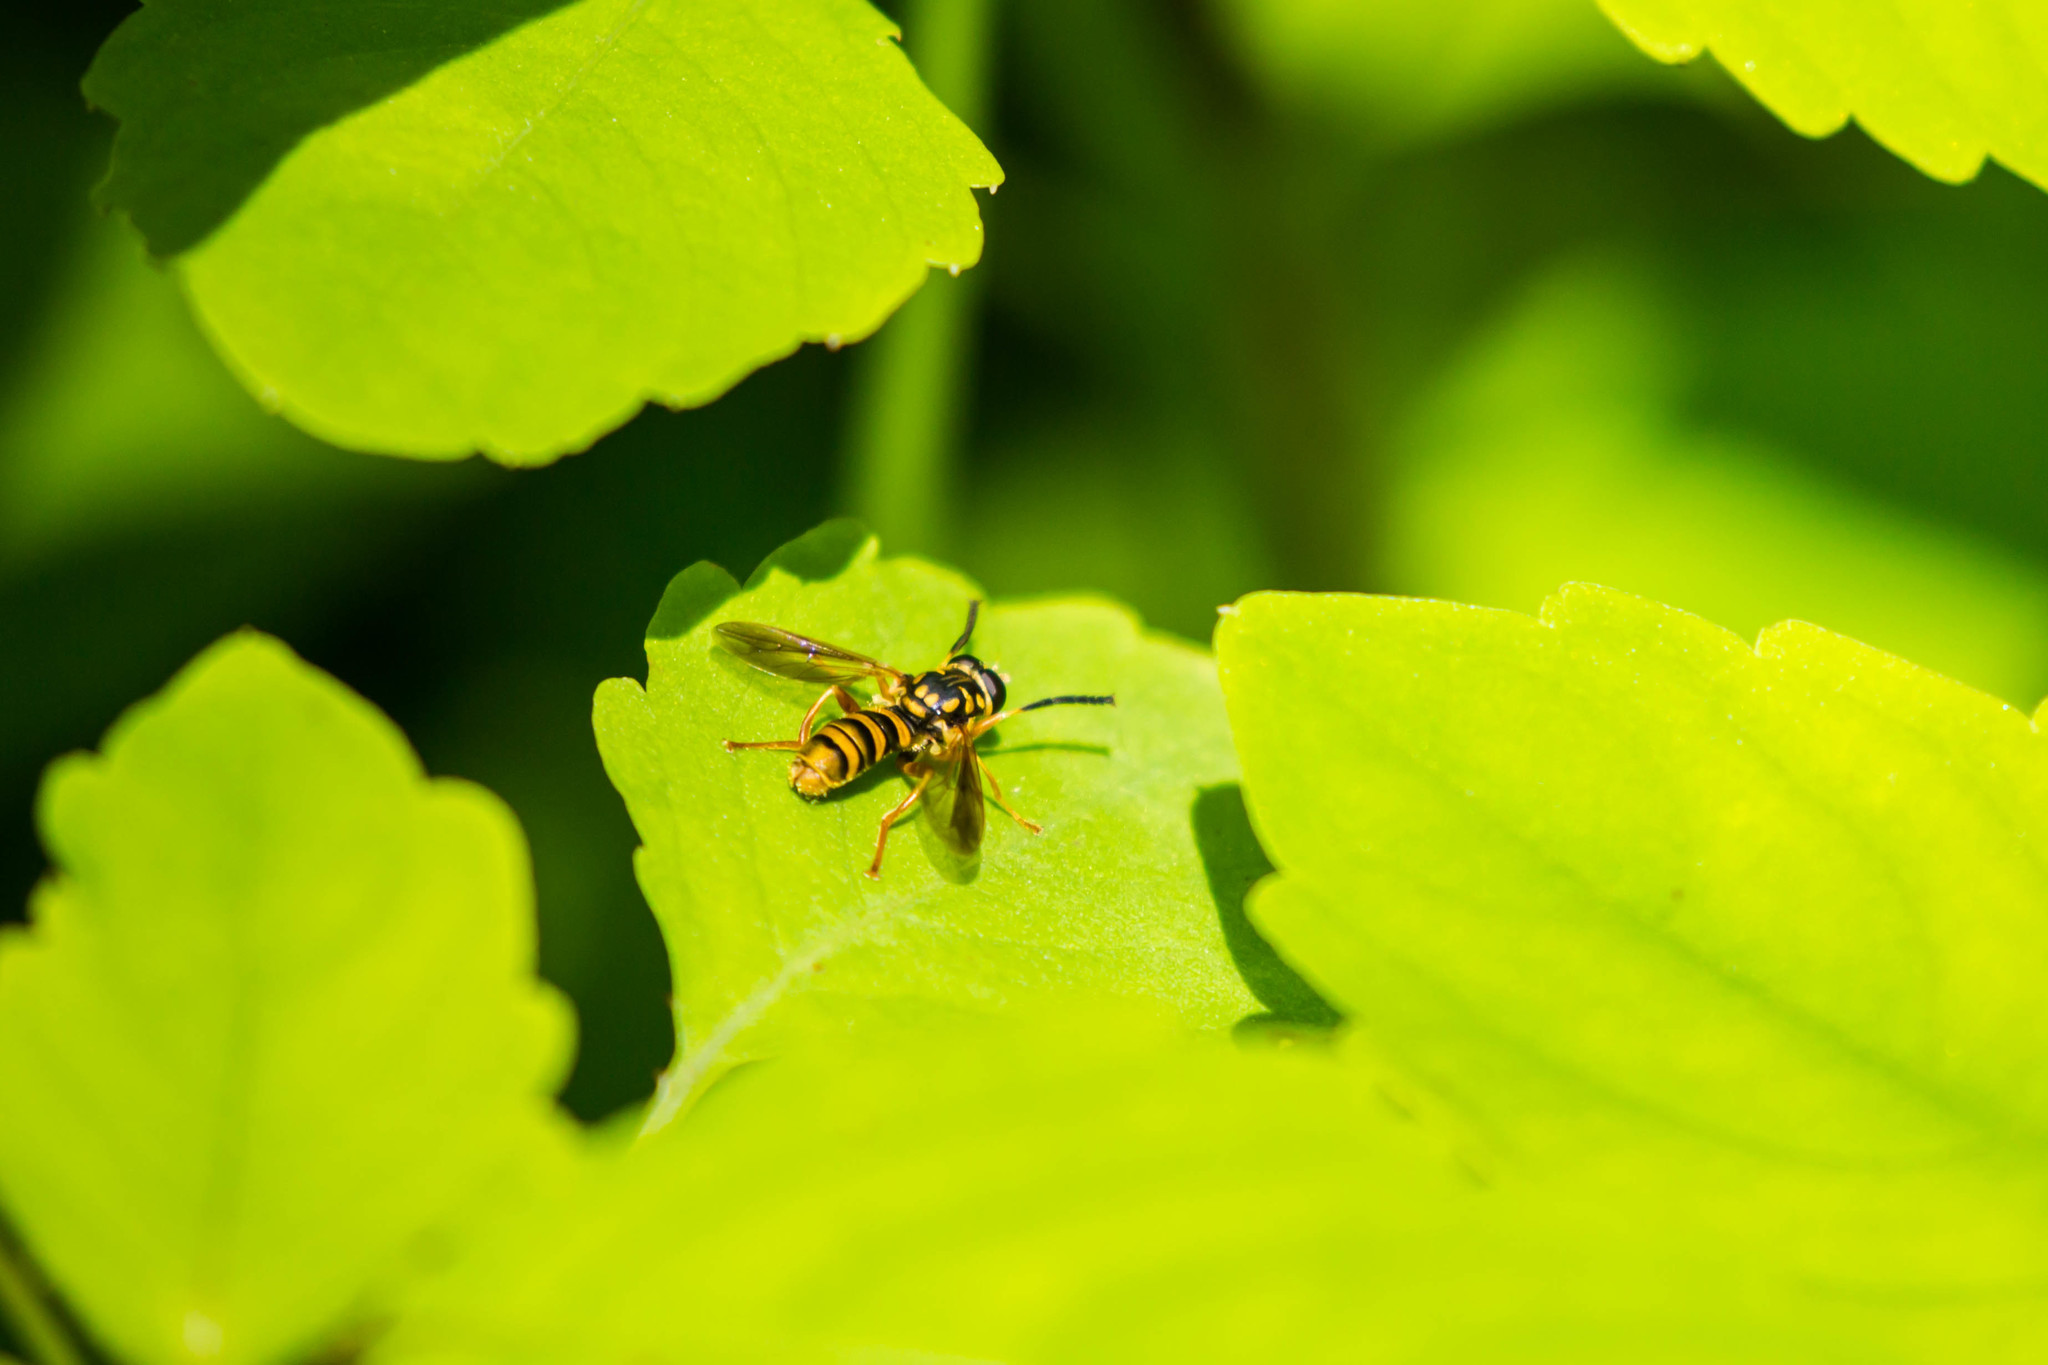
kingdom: Animalia
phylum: Arthropoda
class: Insecta
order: Diptera
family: Syrphidae
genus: Temnostoma
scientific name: Temnostoma daochum
